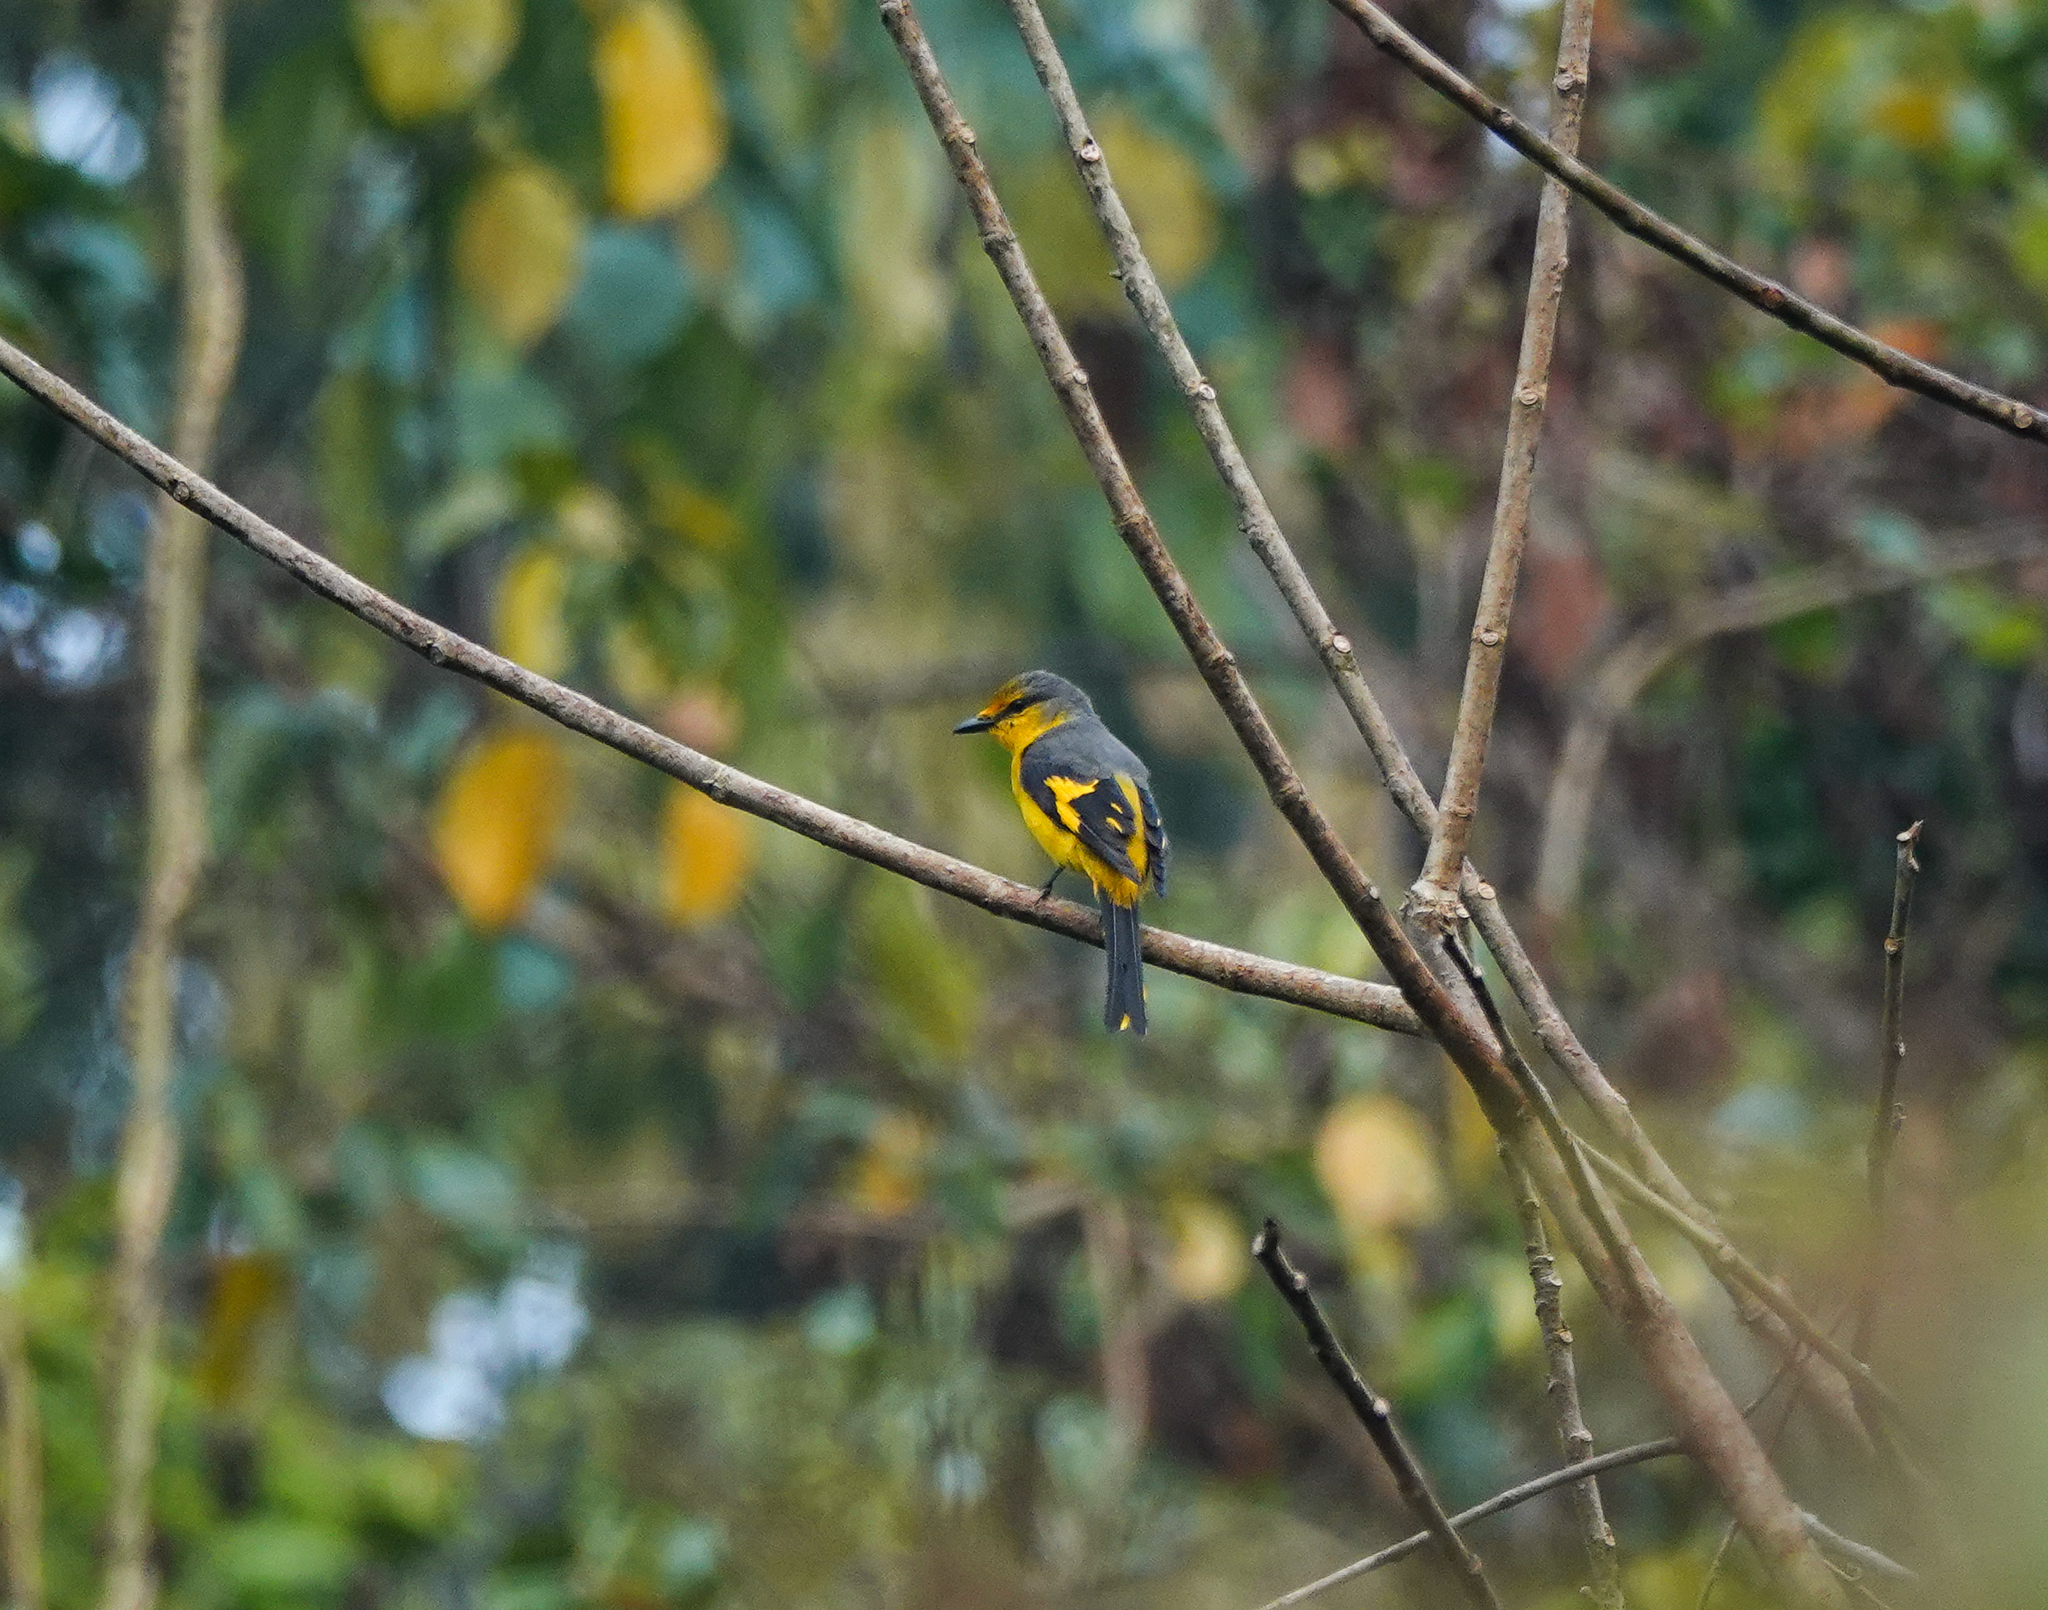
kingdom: Animalia
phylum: Chordata
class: Aves
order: Passeriformes
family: Campephagidae
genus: Pericrocotus
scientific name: Pericrocotus brevirostris
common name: Short-billed minivet
